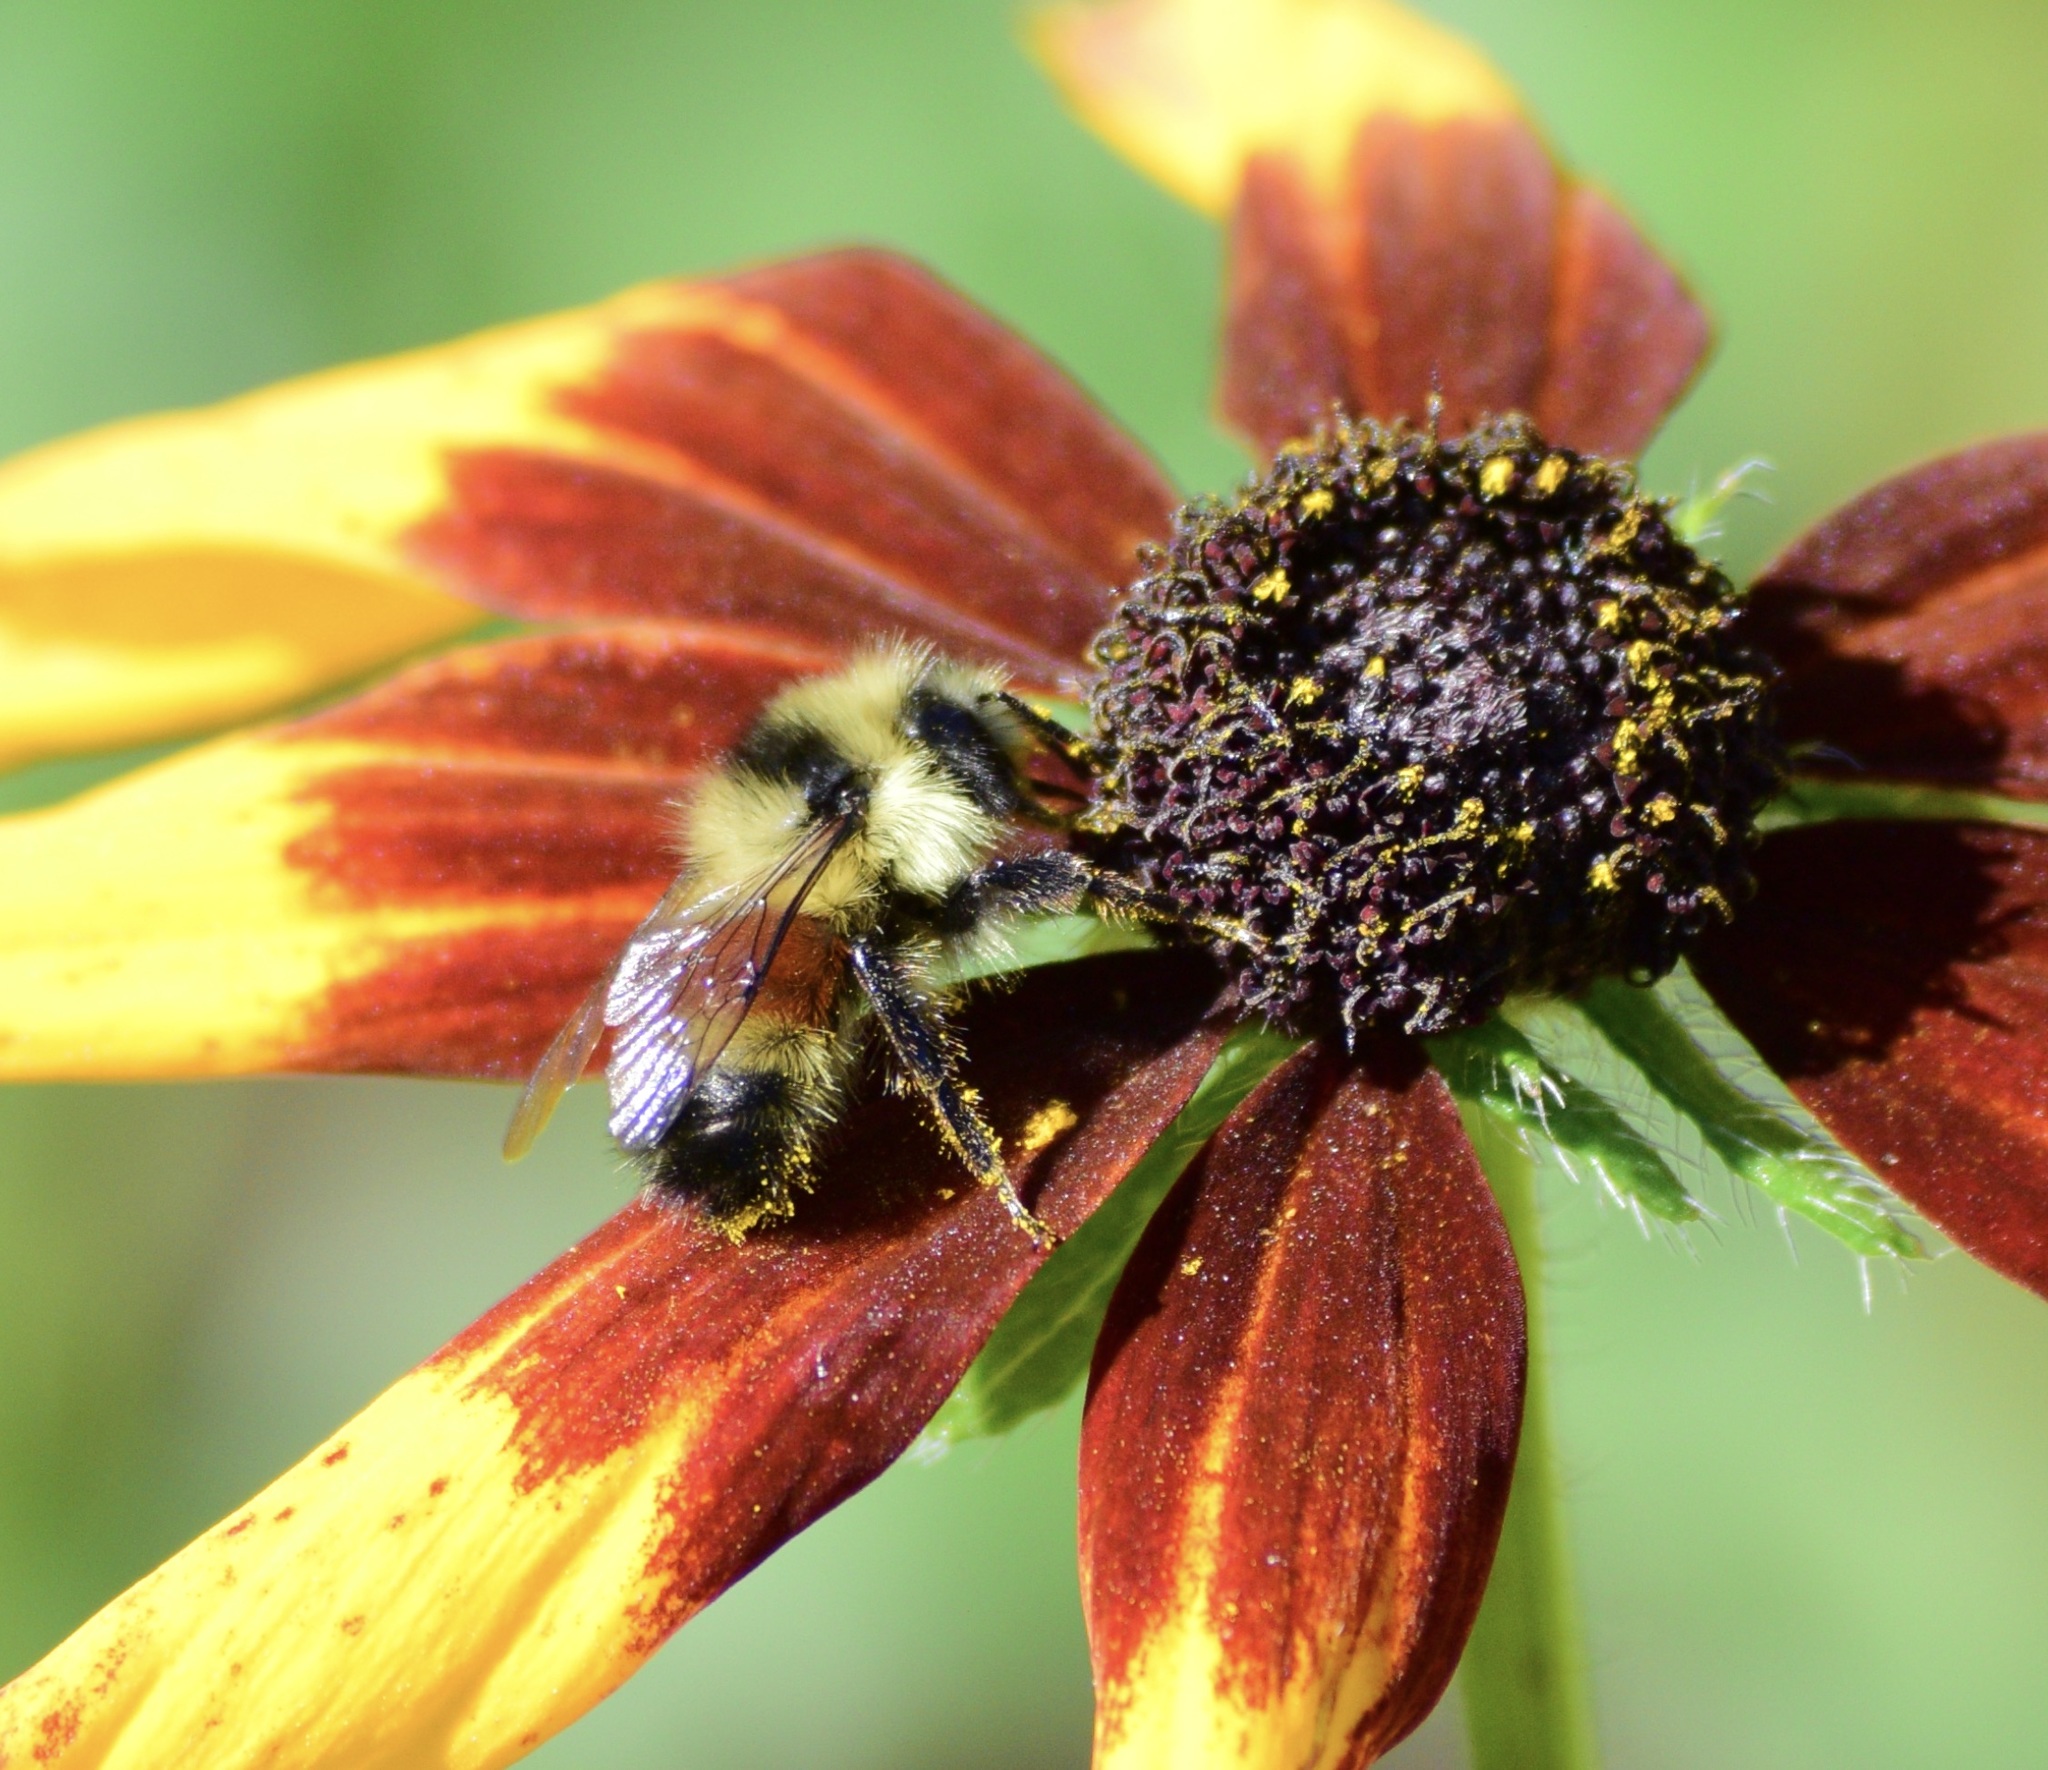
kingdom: Animalia
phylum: Arthropoda
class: Insecta
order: Hymenoptera
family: Apidae
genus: Bombus
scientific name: Bombus ternarius
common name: Tri-colored bumble bee
